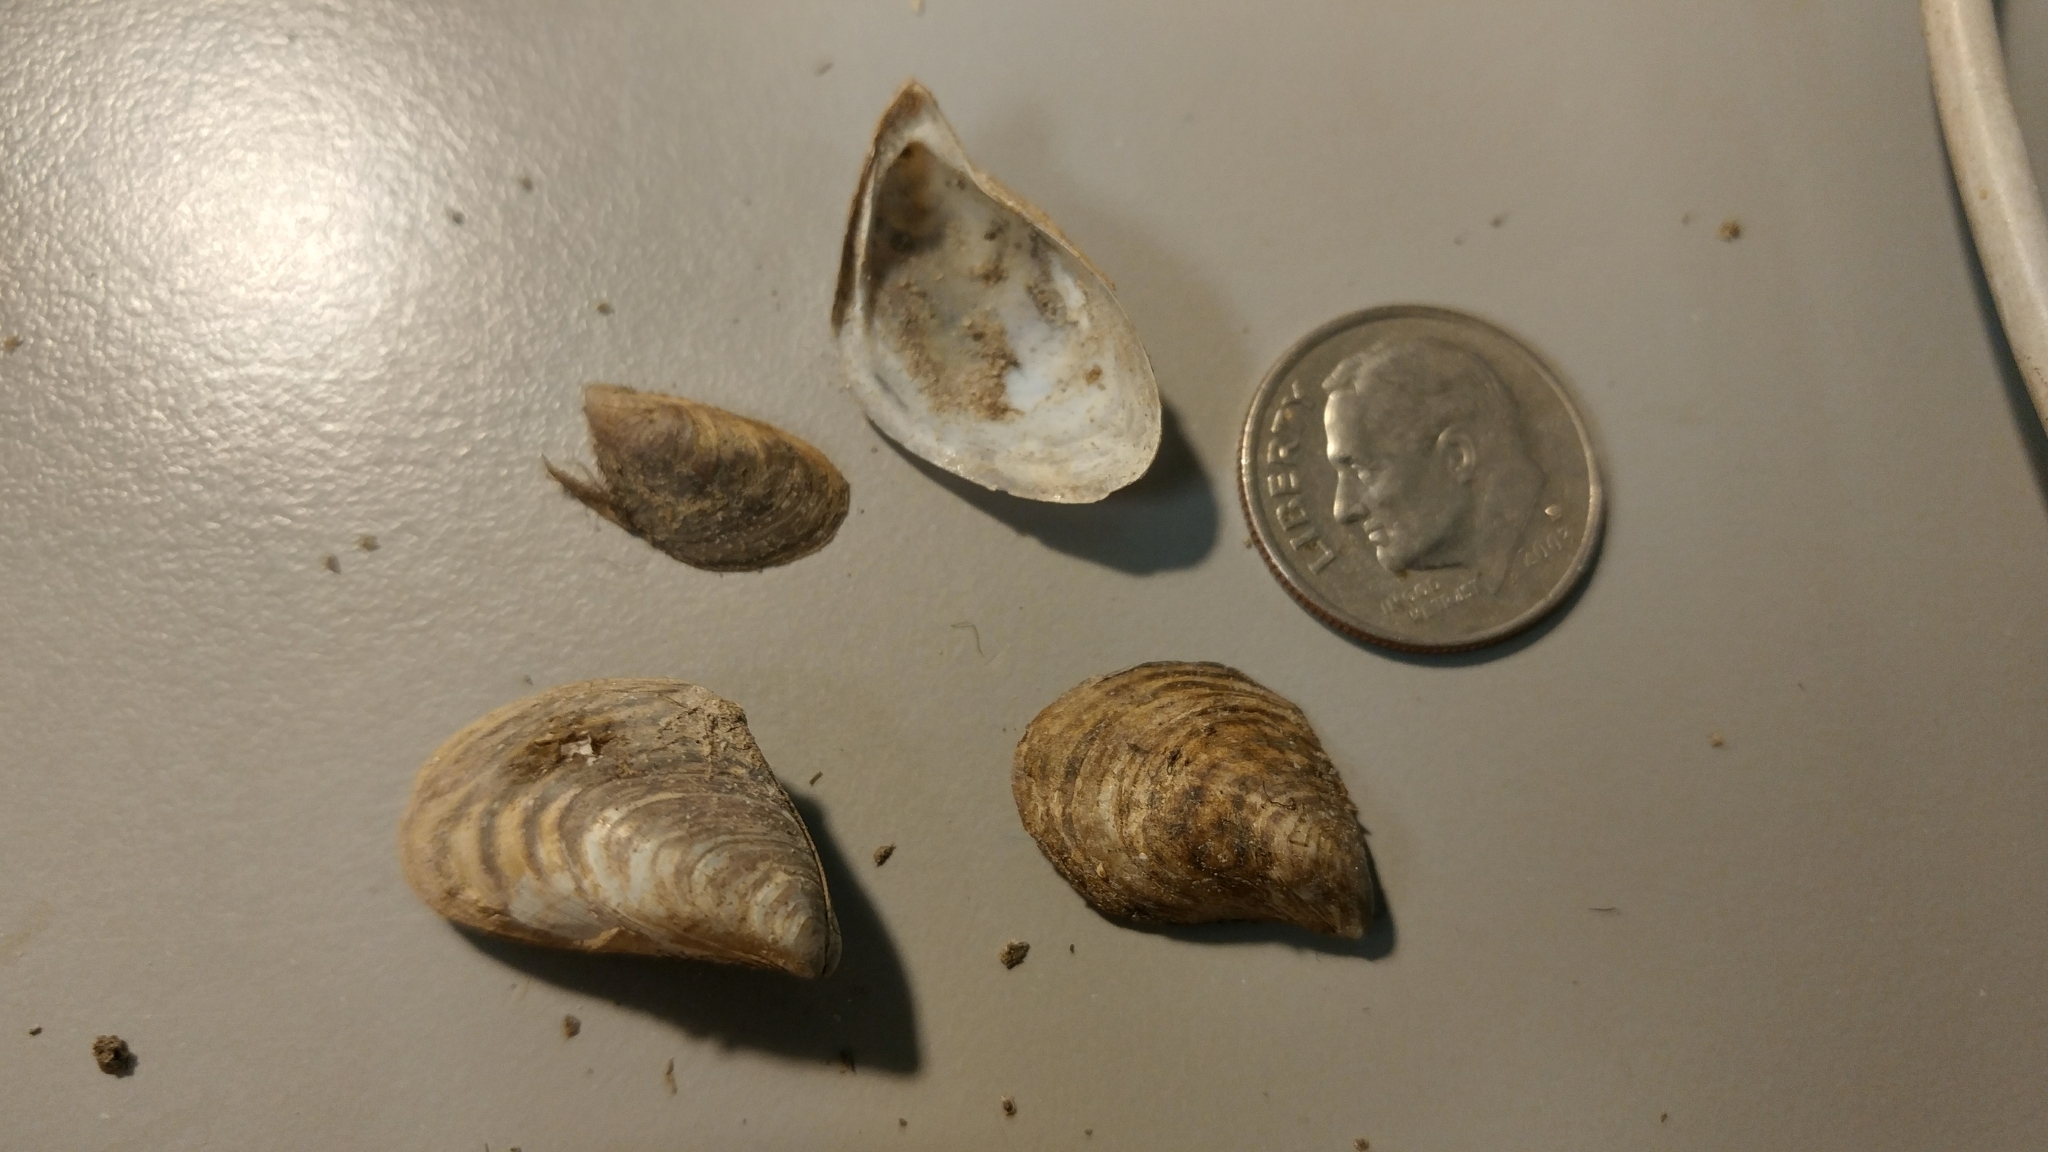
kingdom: Animalia
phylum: Mollusca
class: Bivalvia
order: Myida
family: Dreissenidae
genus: Dreissena
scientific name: Dreissena bugensis
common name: Quagga mussel
